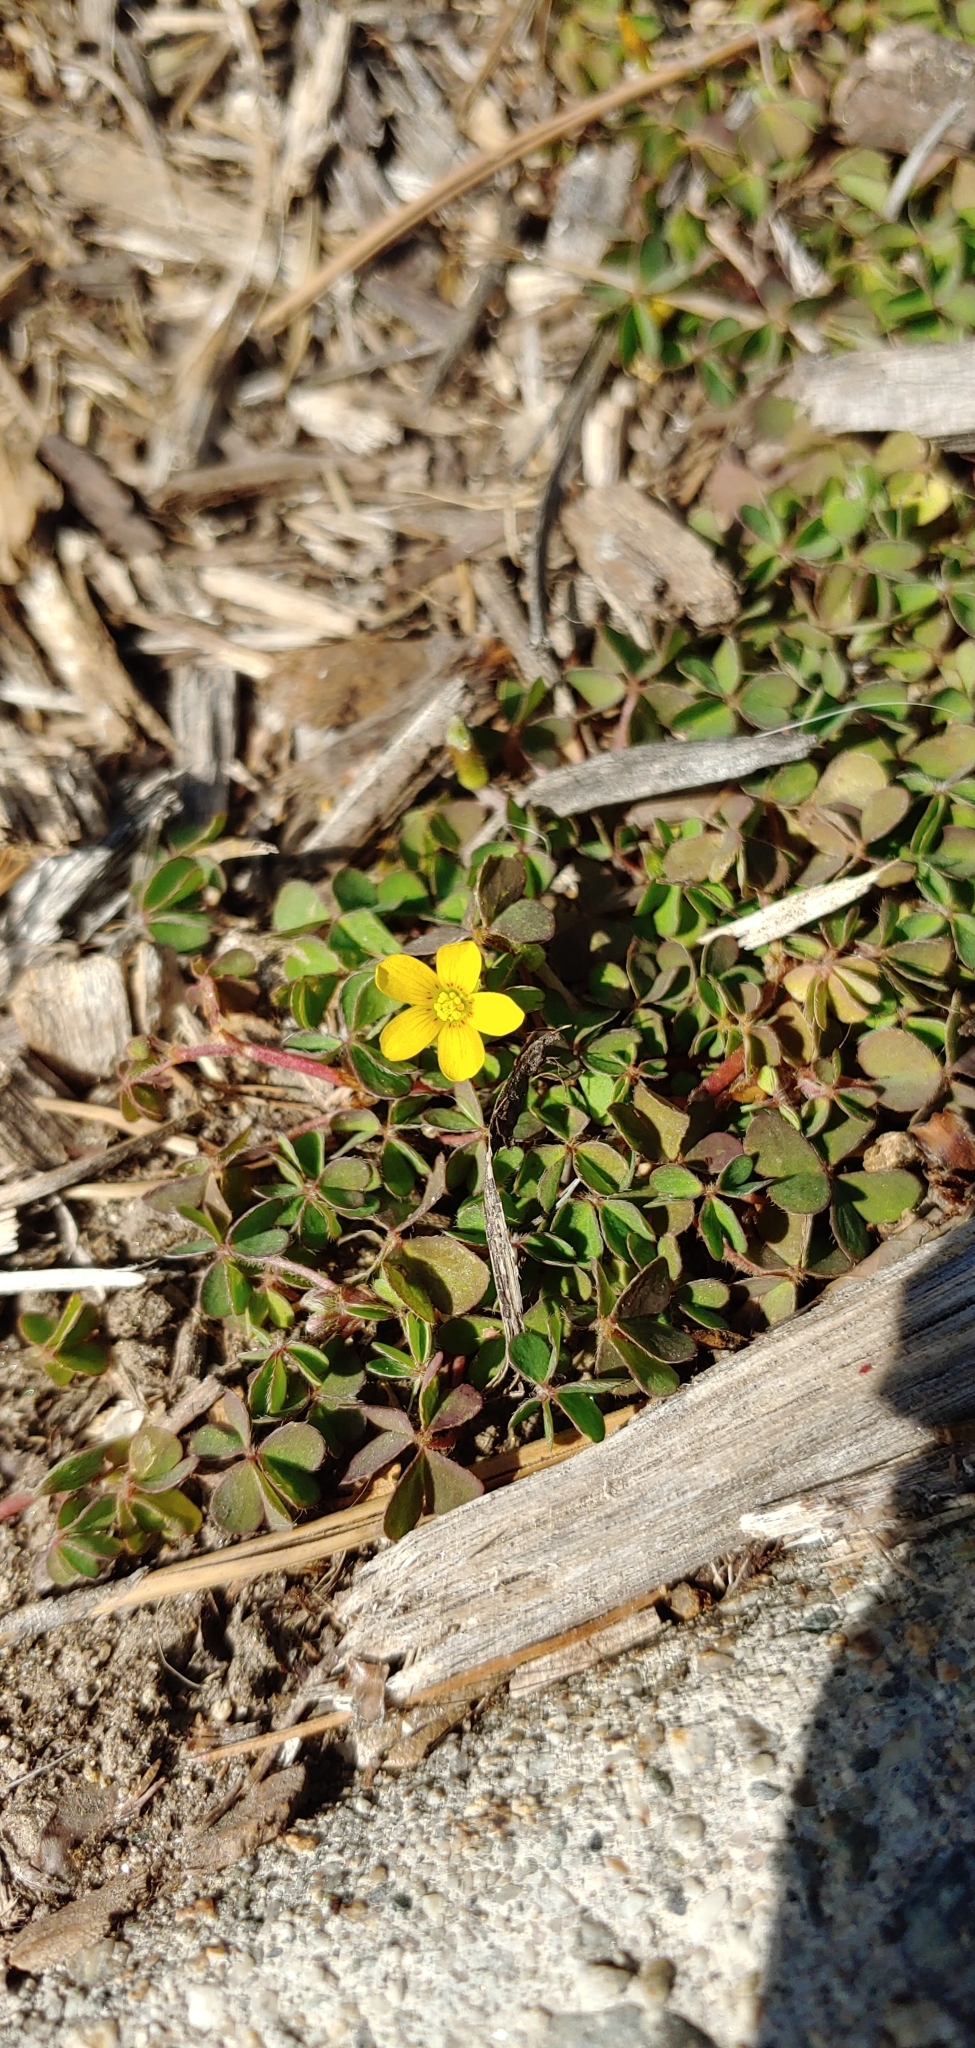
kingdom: Plantae
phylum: Tracheophyta
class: Magnoliopsida
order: Oxalidales
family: Oxalidaceae
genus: Oxalis
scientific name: Oxalis corniculata
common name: Procumbent yellow-sorrel
